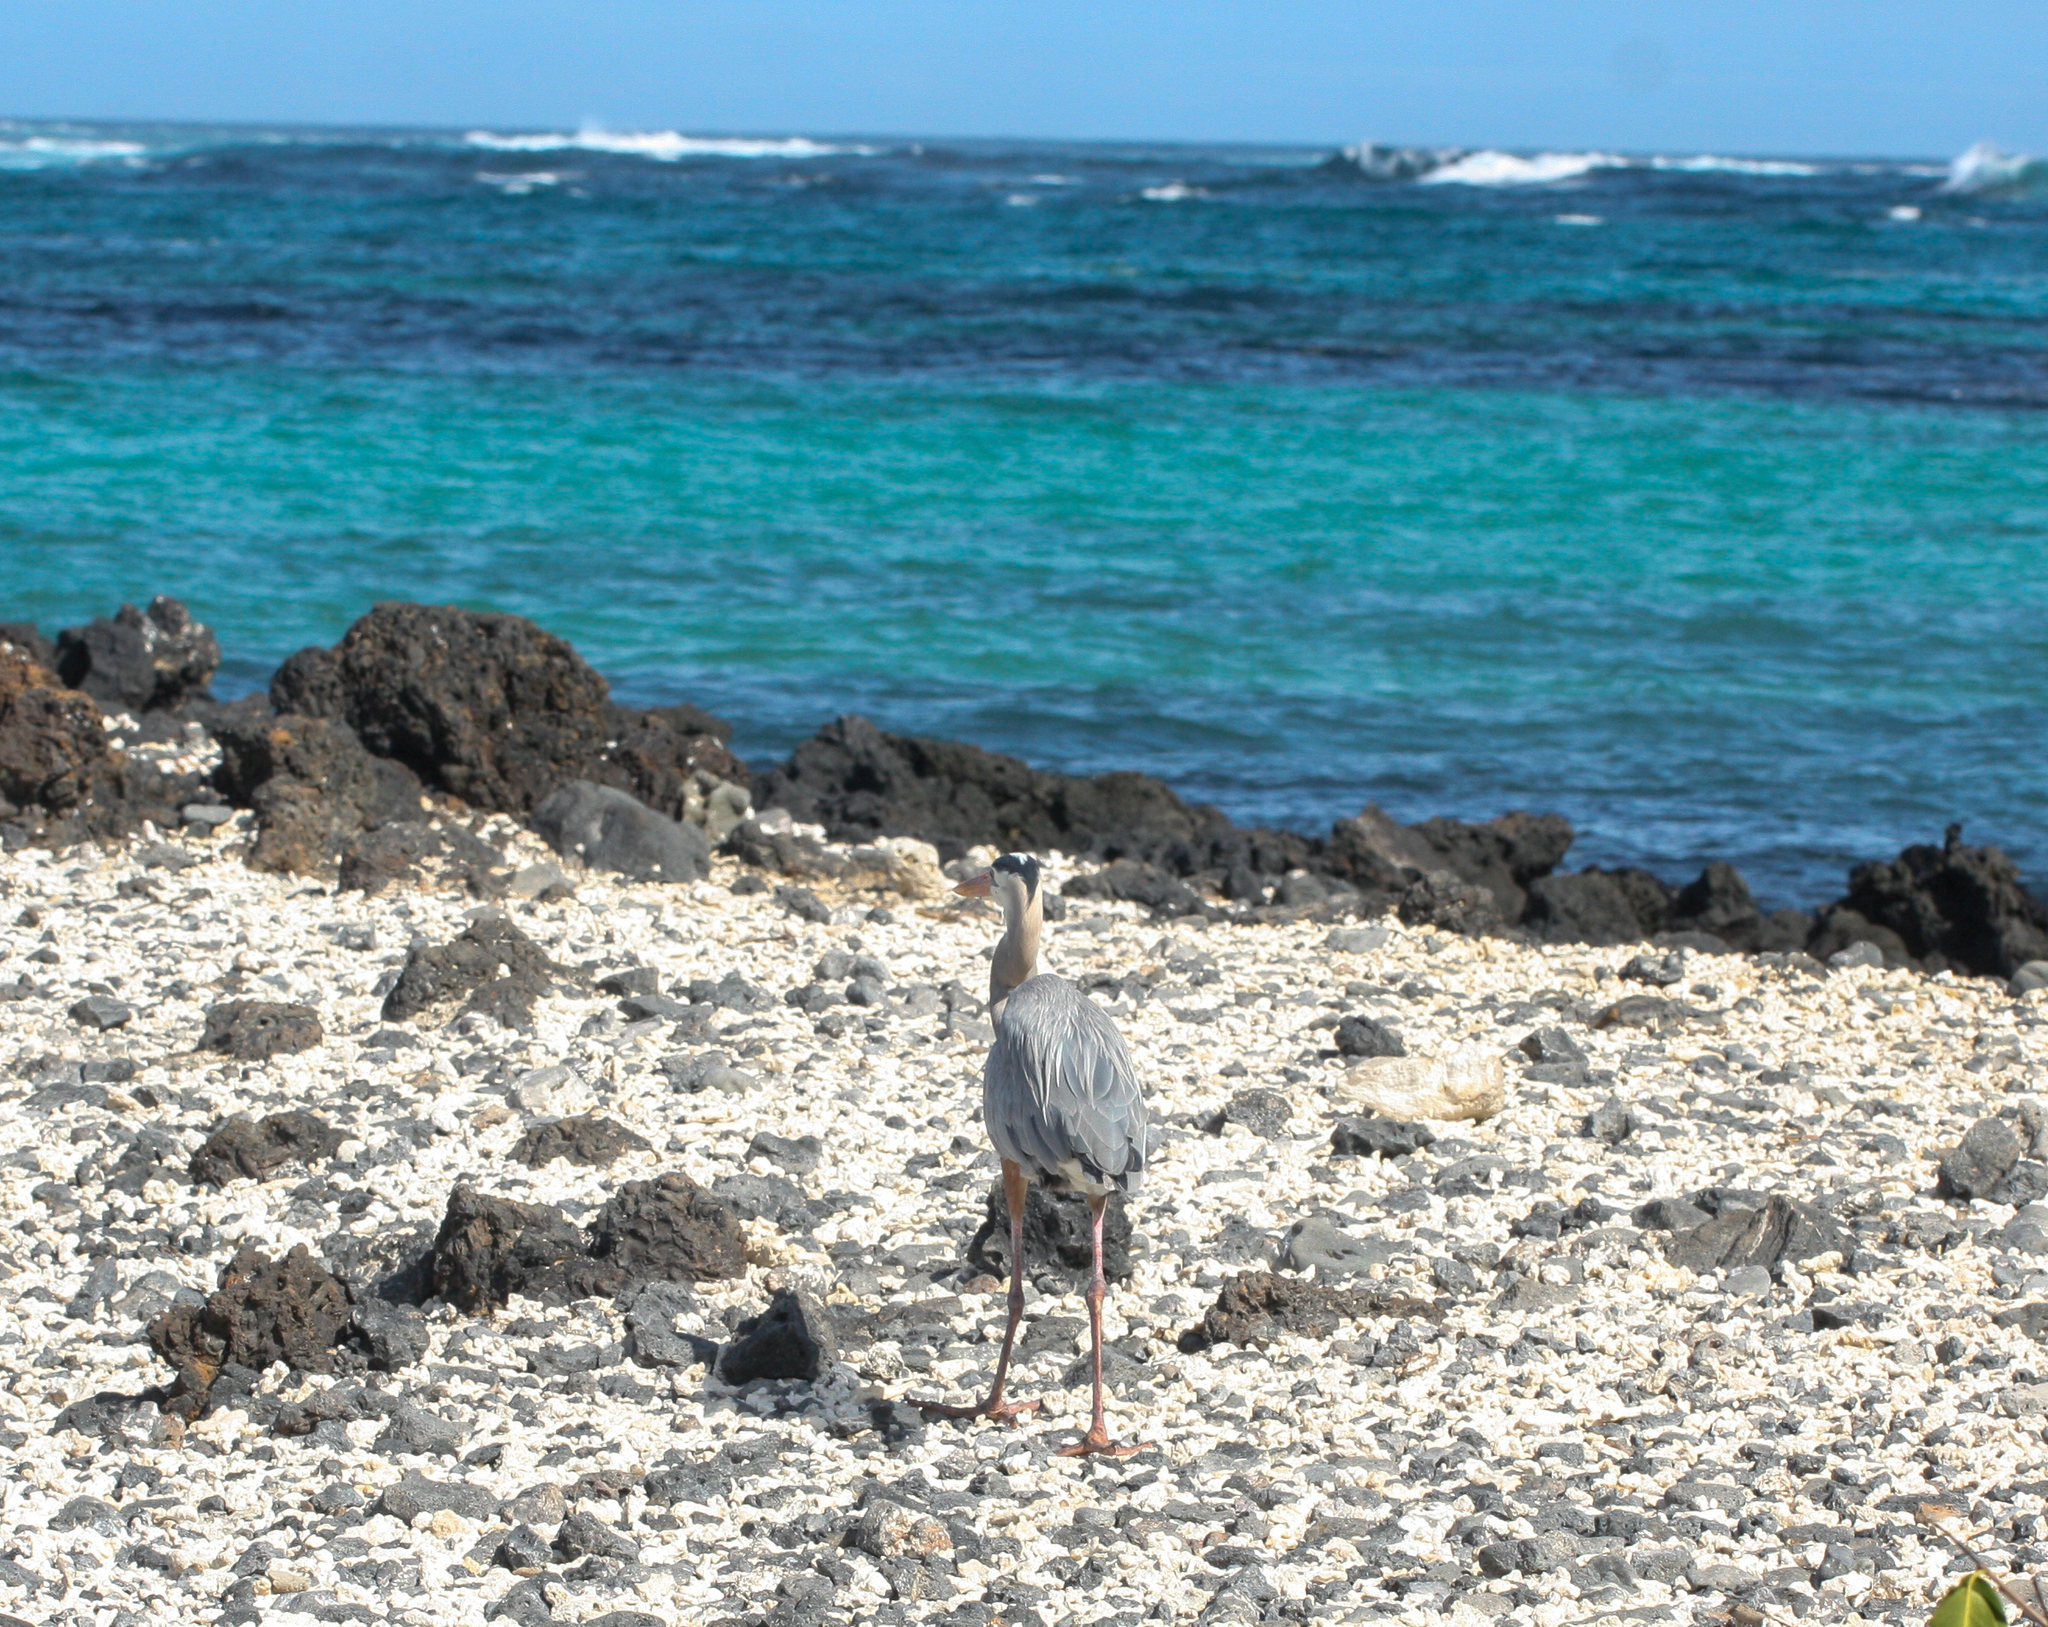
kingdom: Animalia
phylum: Chordata
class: Aves
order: Pelecaniformes
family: Ardeidae
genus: Ardea
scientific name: Ardea herodias
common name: Great blue heron
